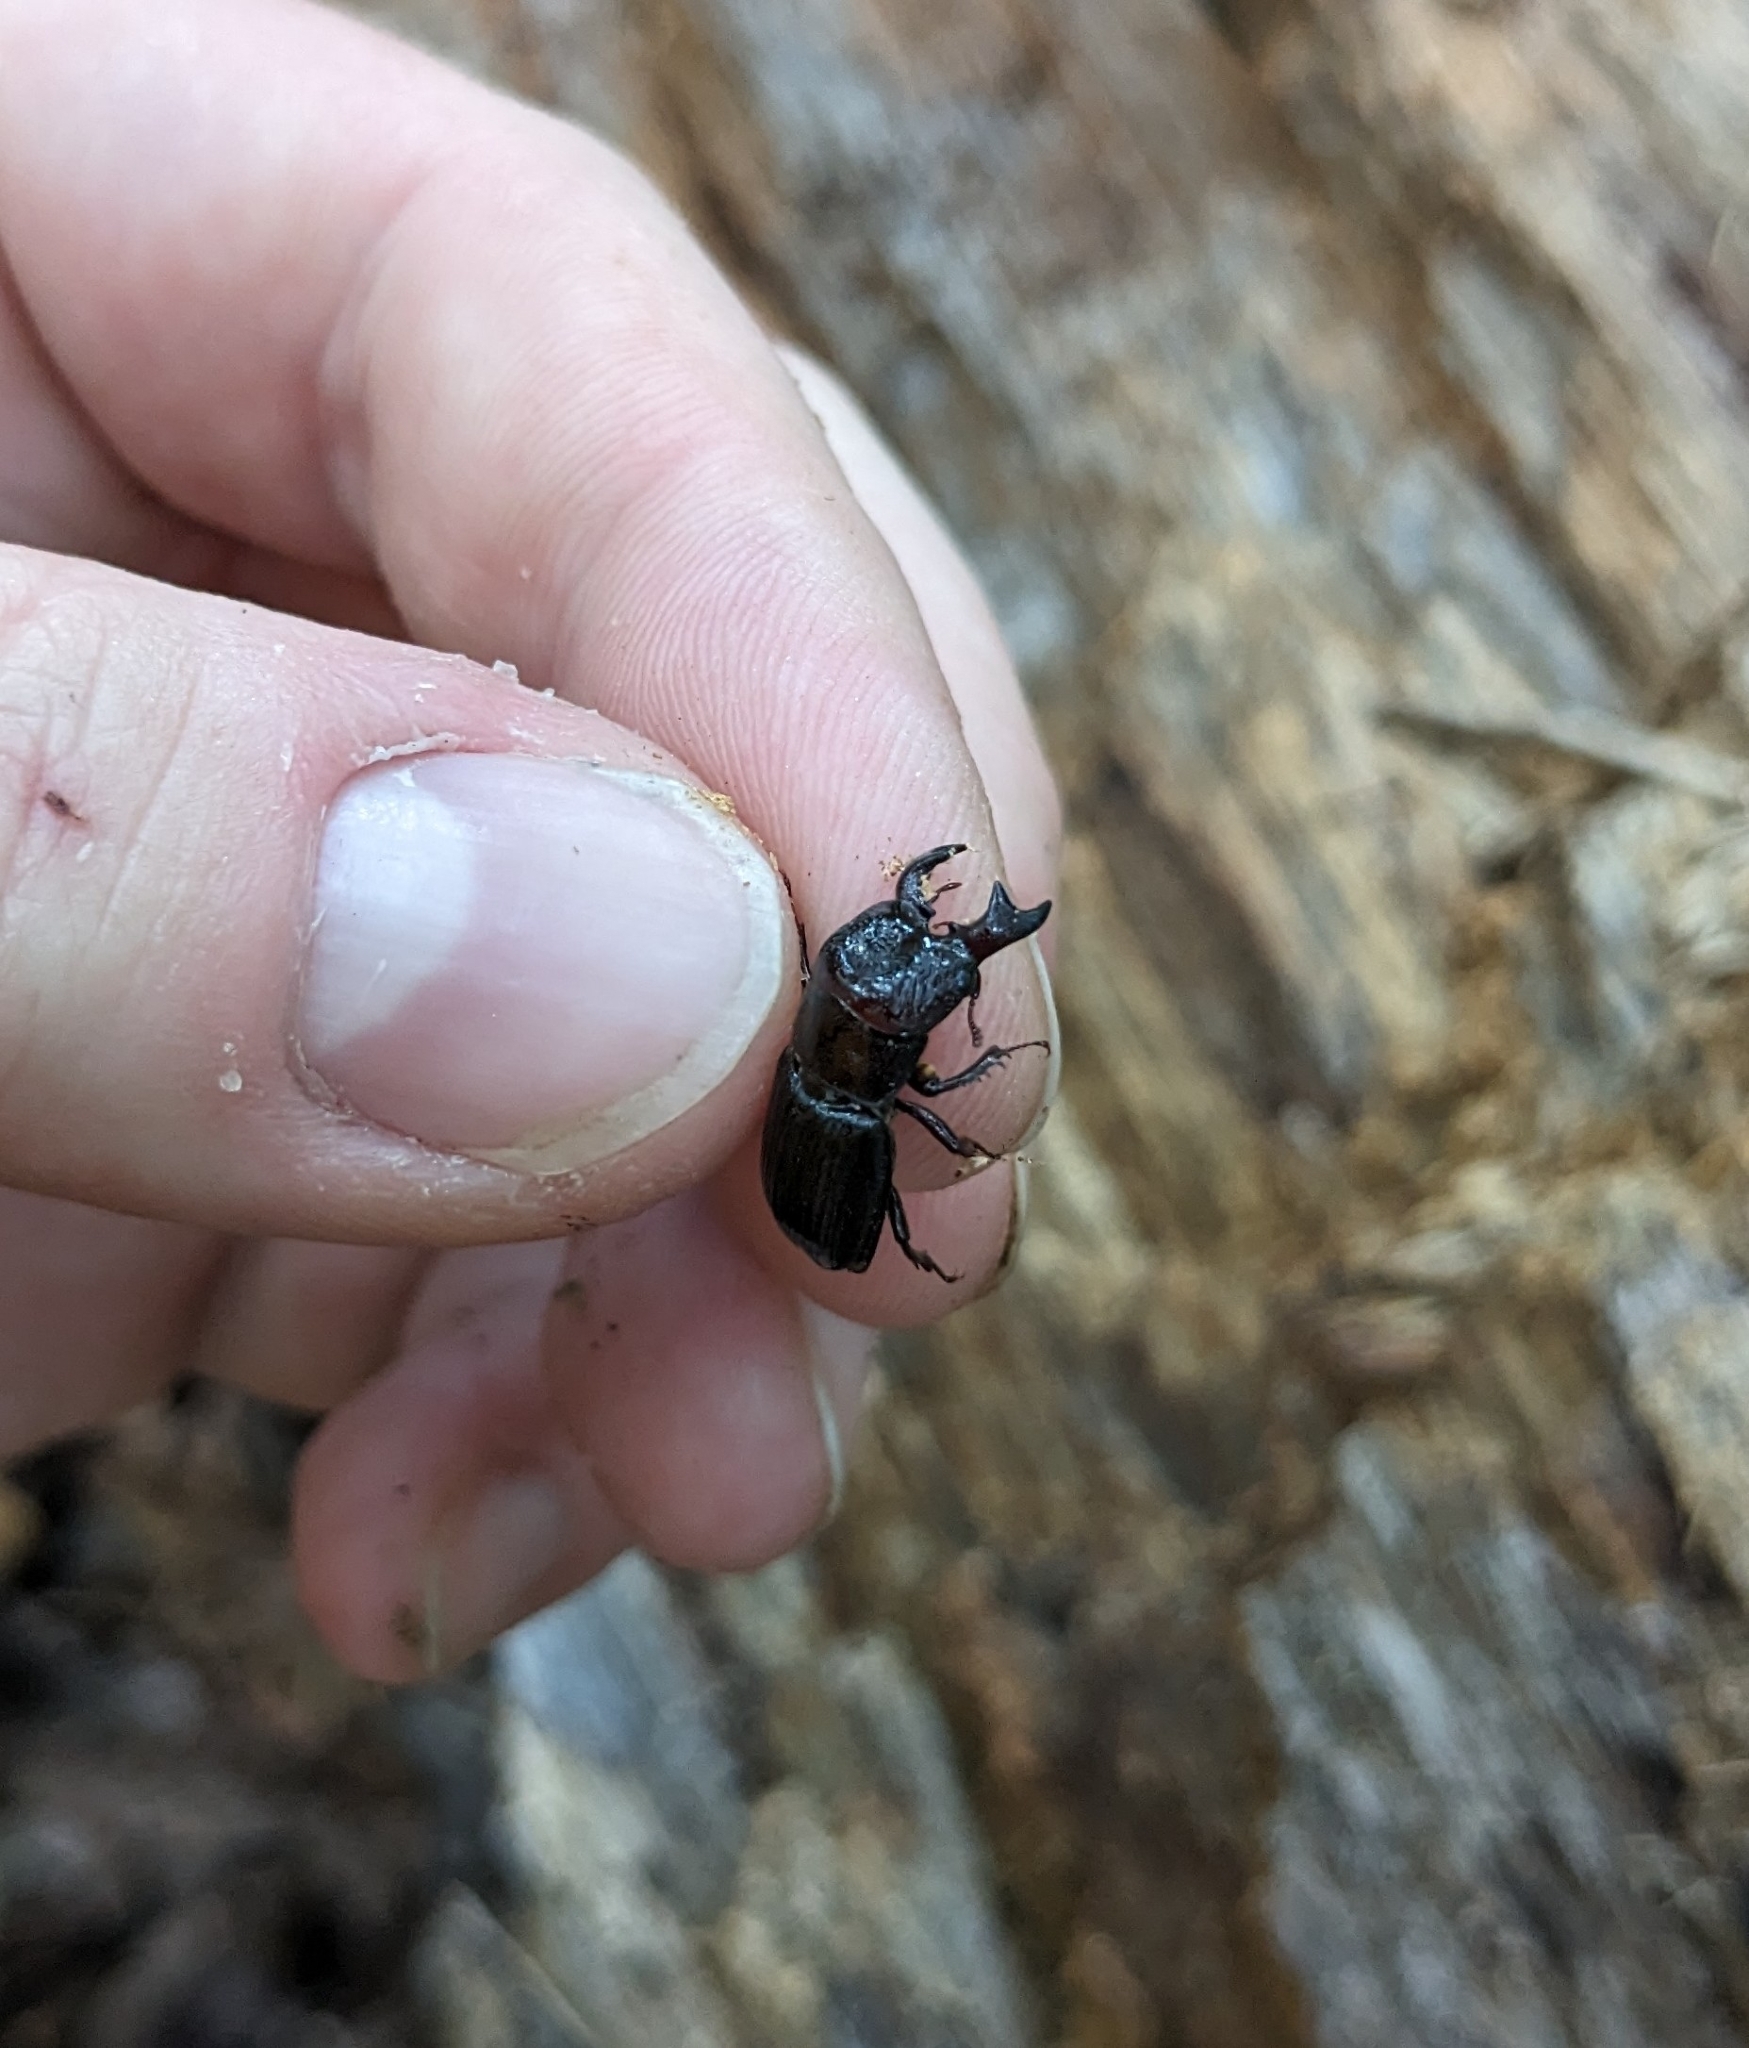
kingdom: Animalia
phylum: Arthropoda
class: Insecta
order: Coleoptera
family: Lucanidae
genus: Ceruchus
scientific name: Ceruchus piceus
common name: Red-rot decay stag beetle
